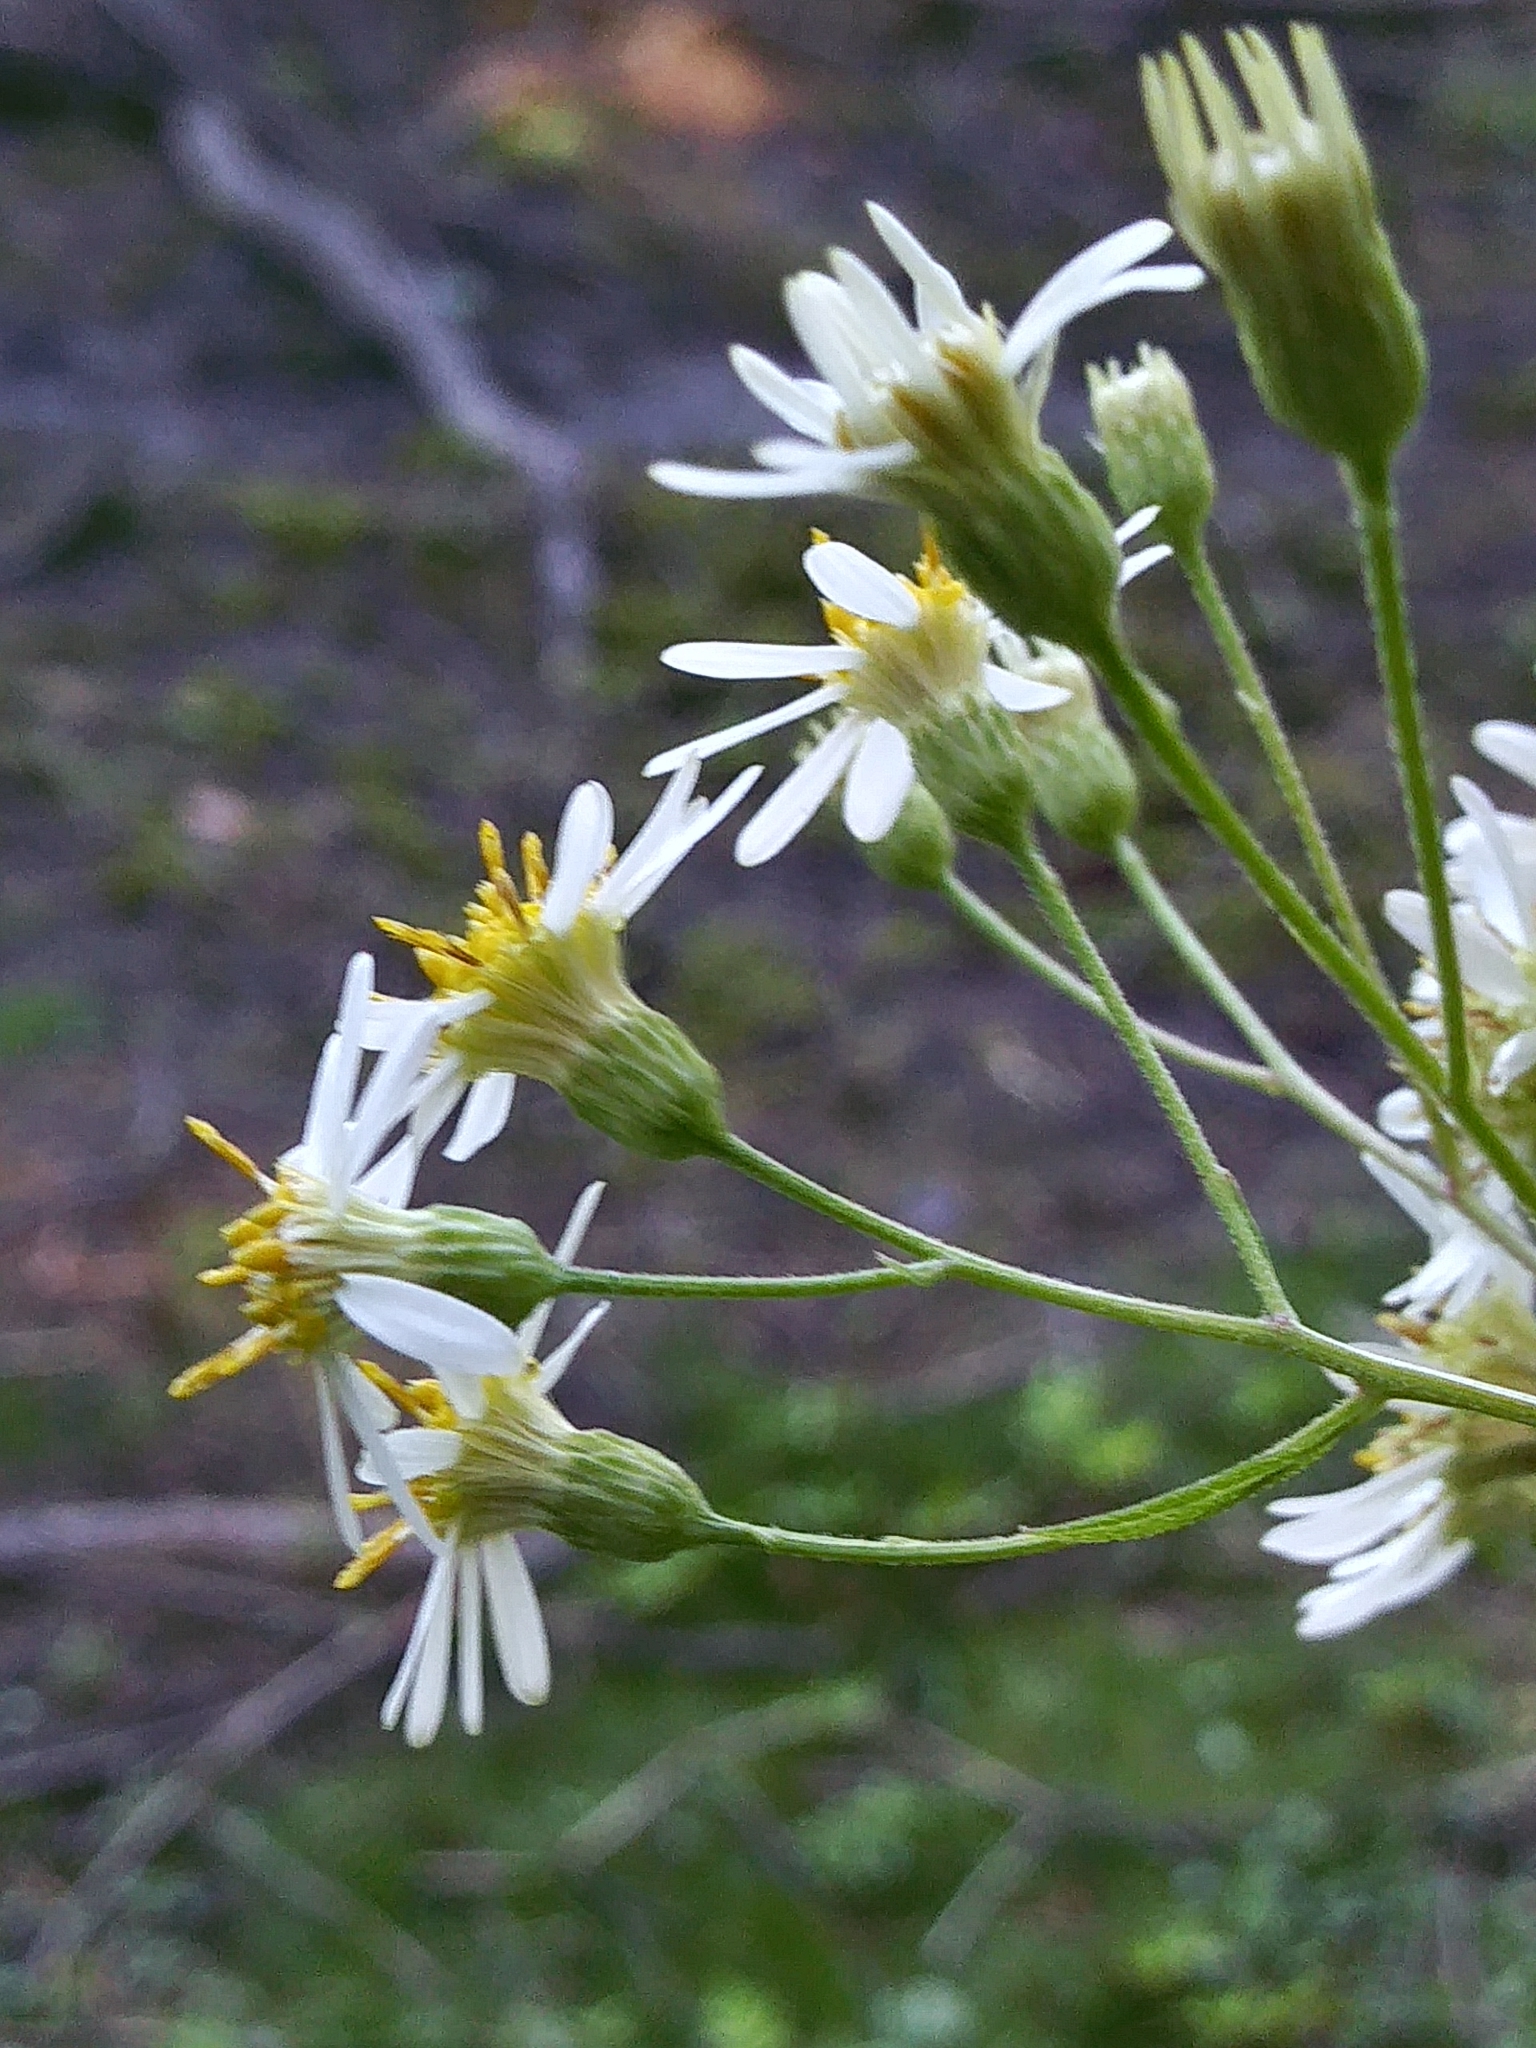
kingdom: Plantae
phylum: Tracheophyta
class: Magnoliopsida
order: Asterales
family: Asteraceae
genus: Doellingeria
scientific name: Doellingeria umbellata
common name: Flat-top white aster
